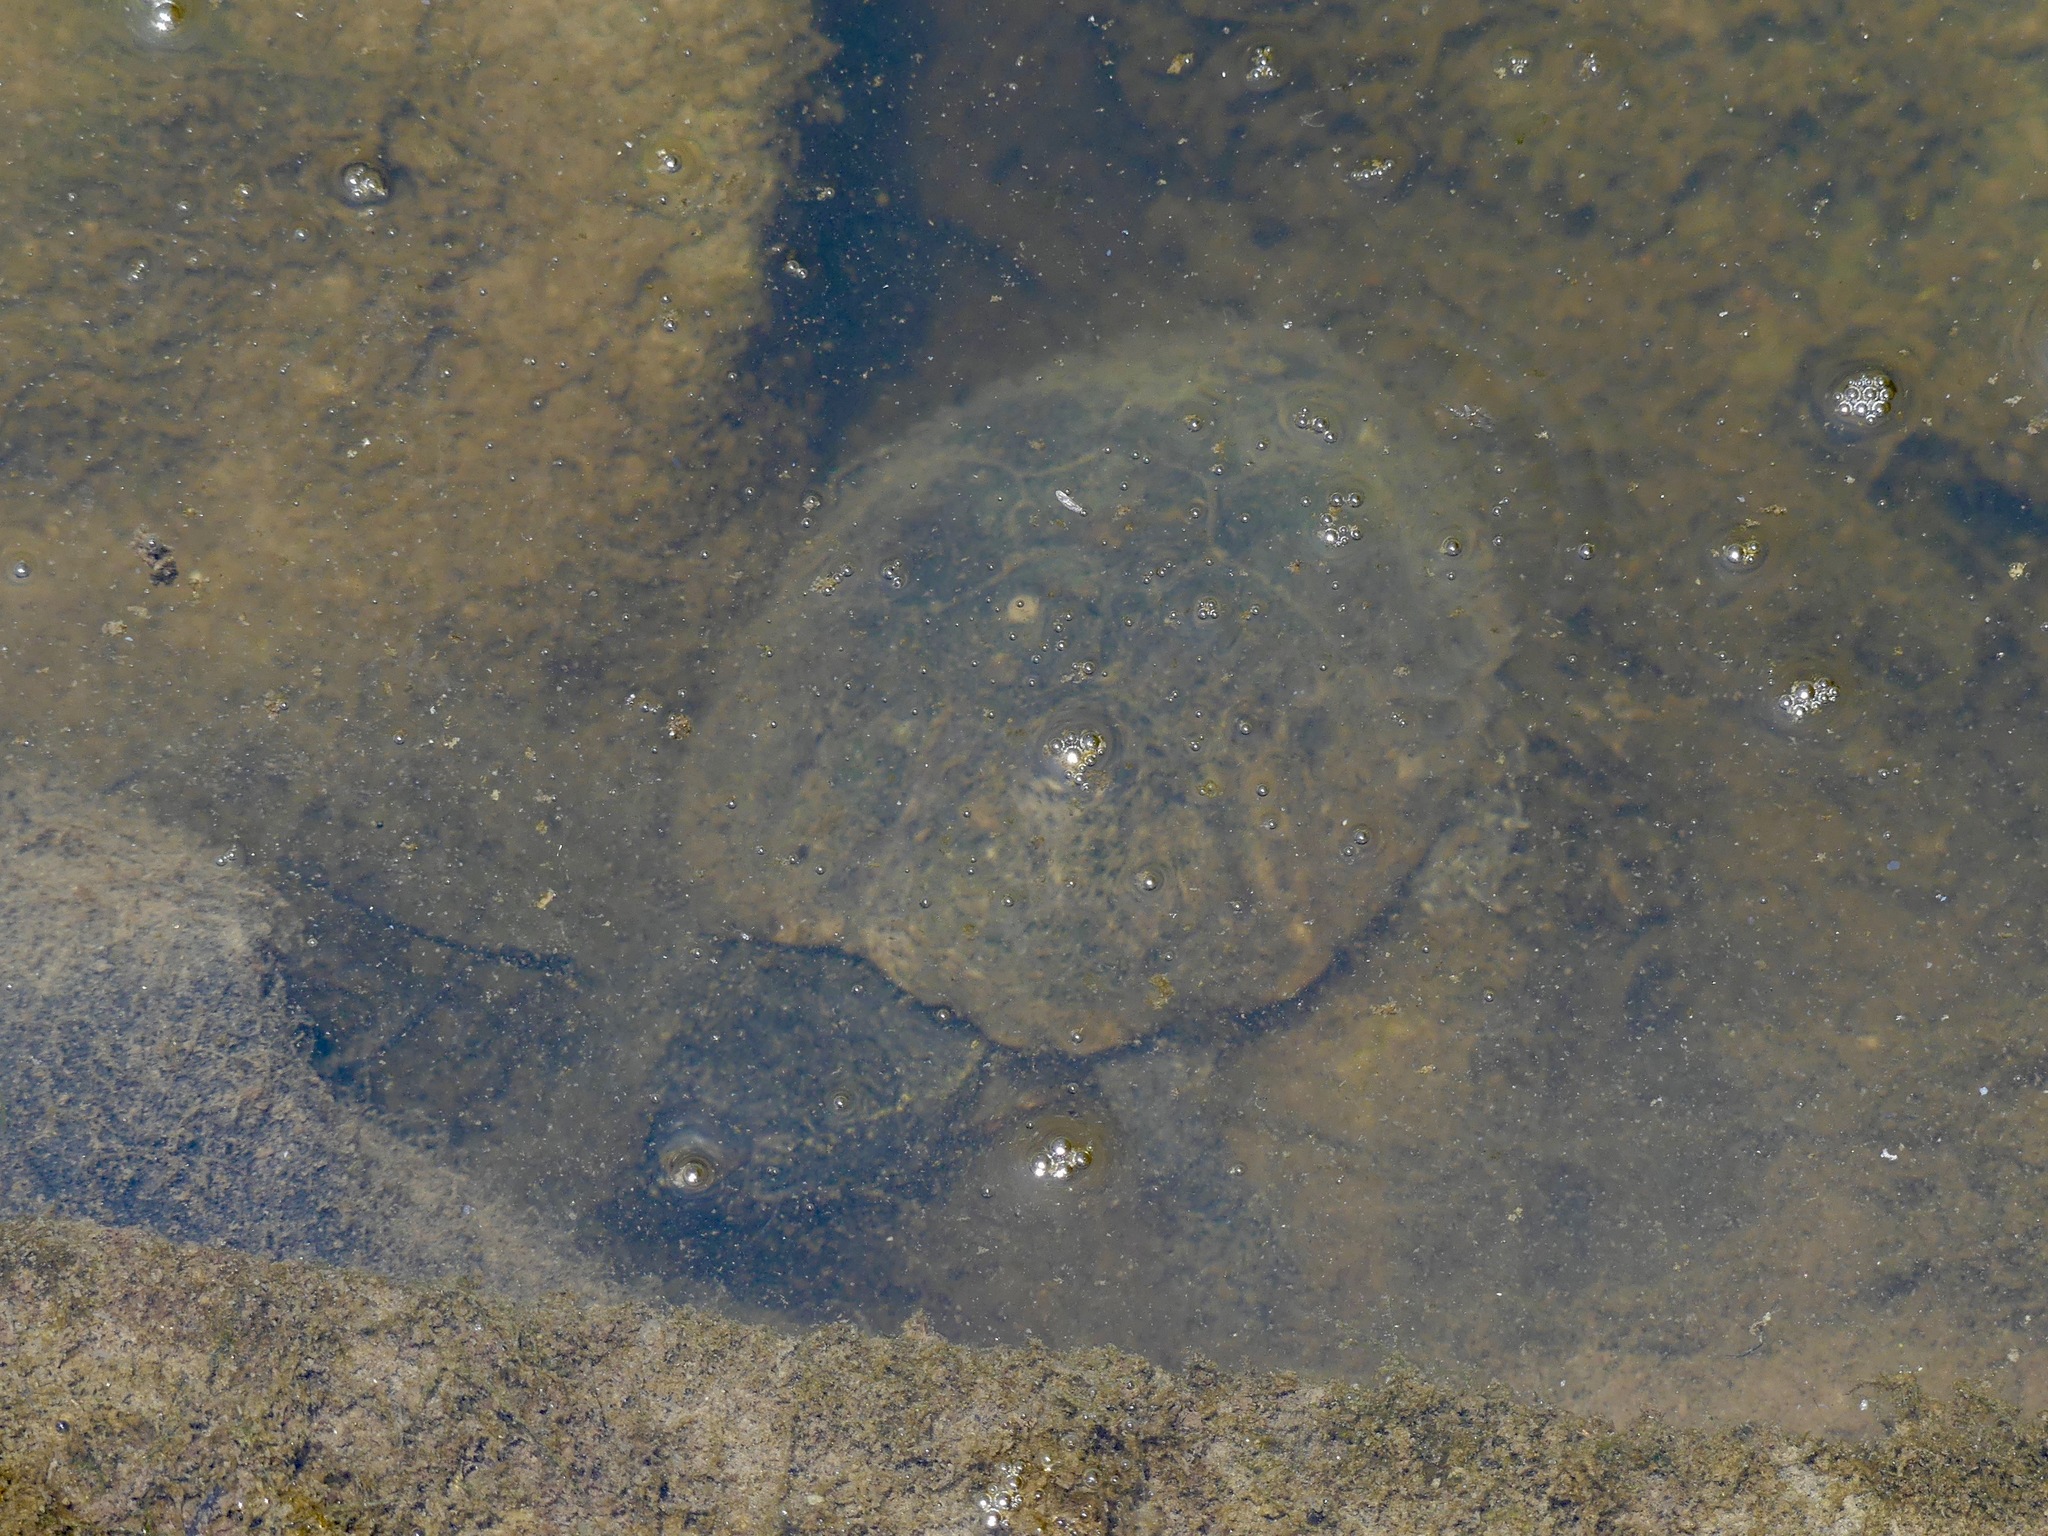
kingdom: Animalia
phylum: Chordata
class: Testudines
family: Kinosternidae
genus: Sternotherus
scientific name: Sternotherus odoratus
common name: Common musk turtle
